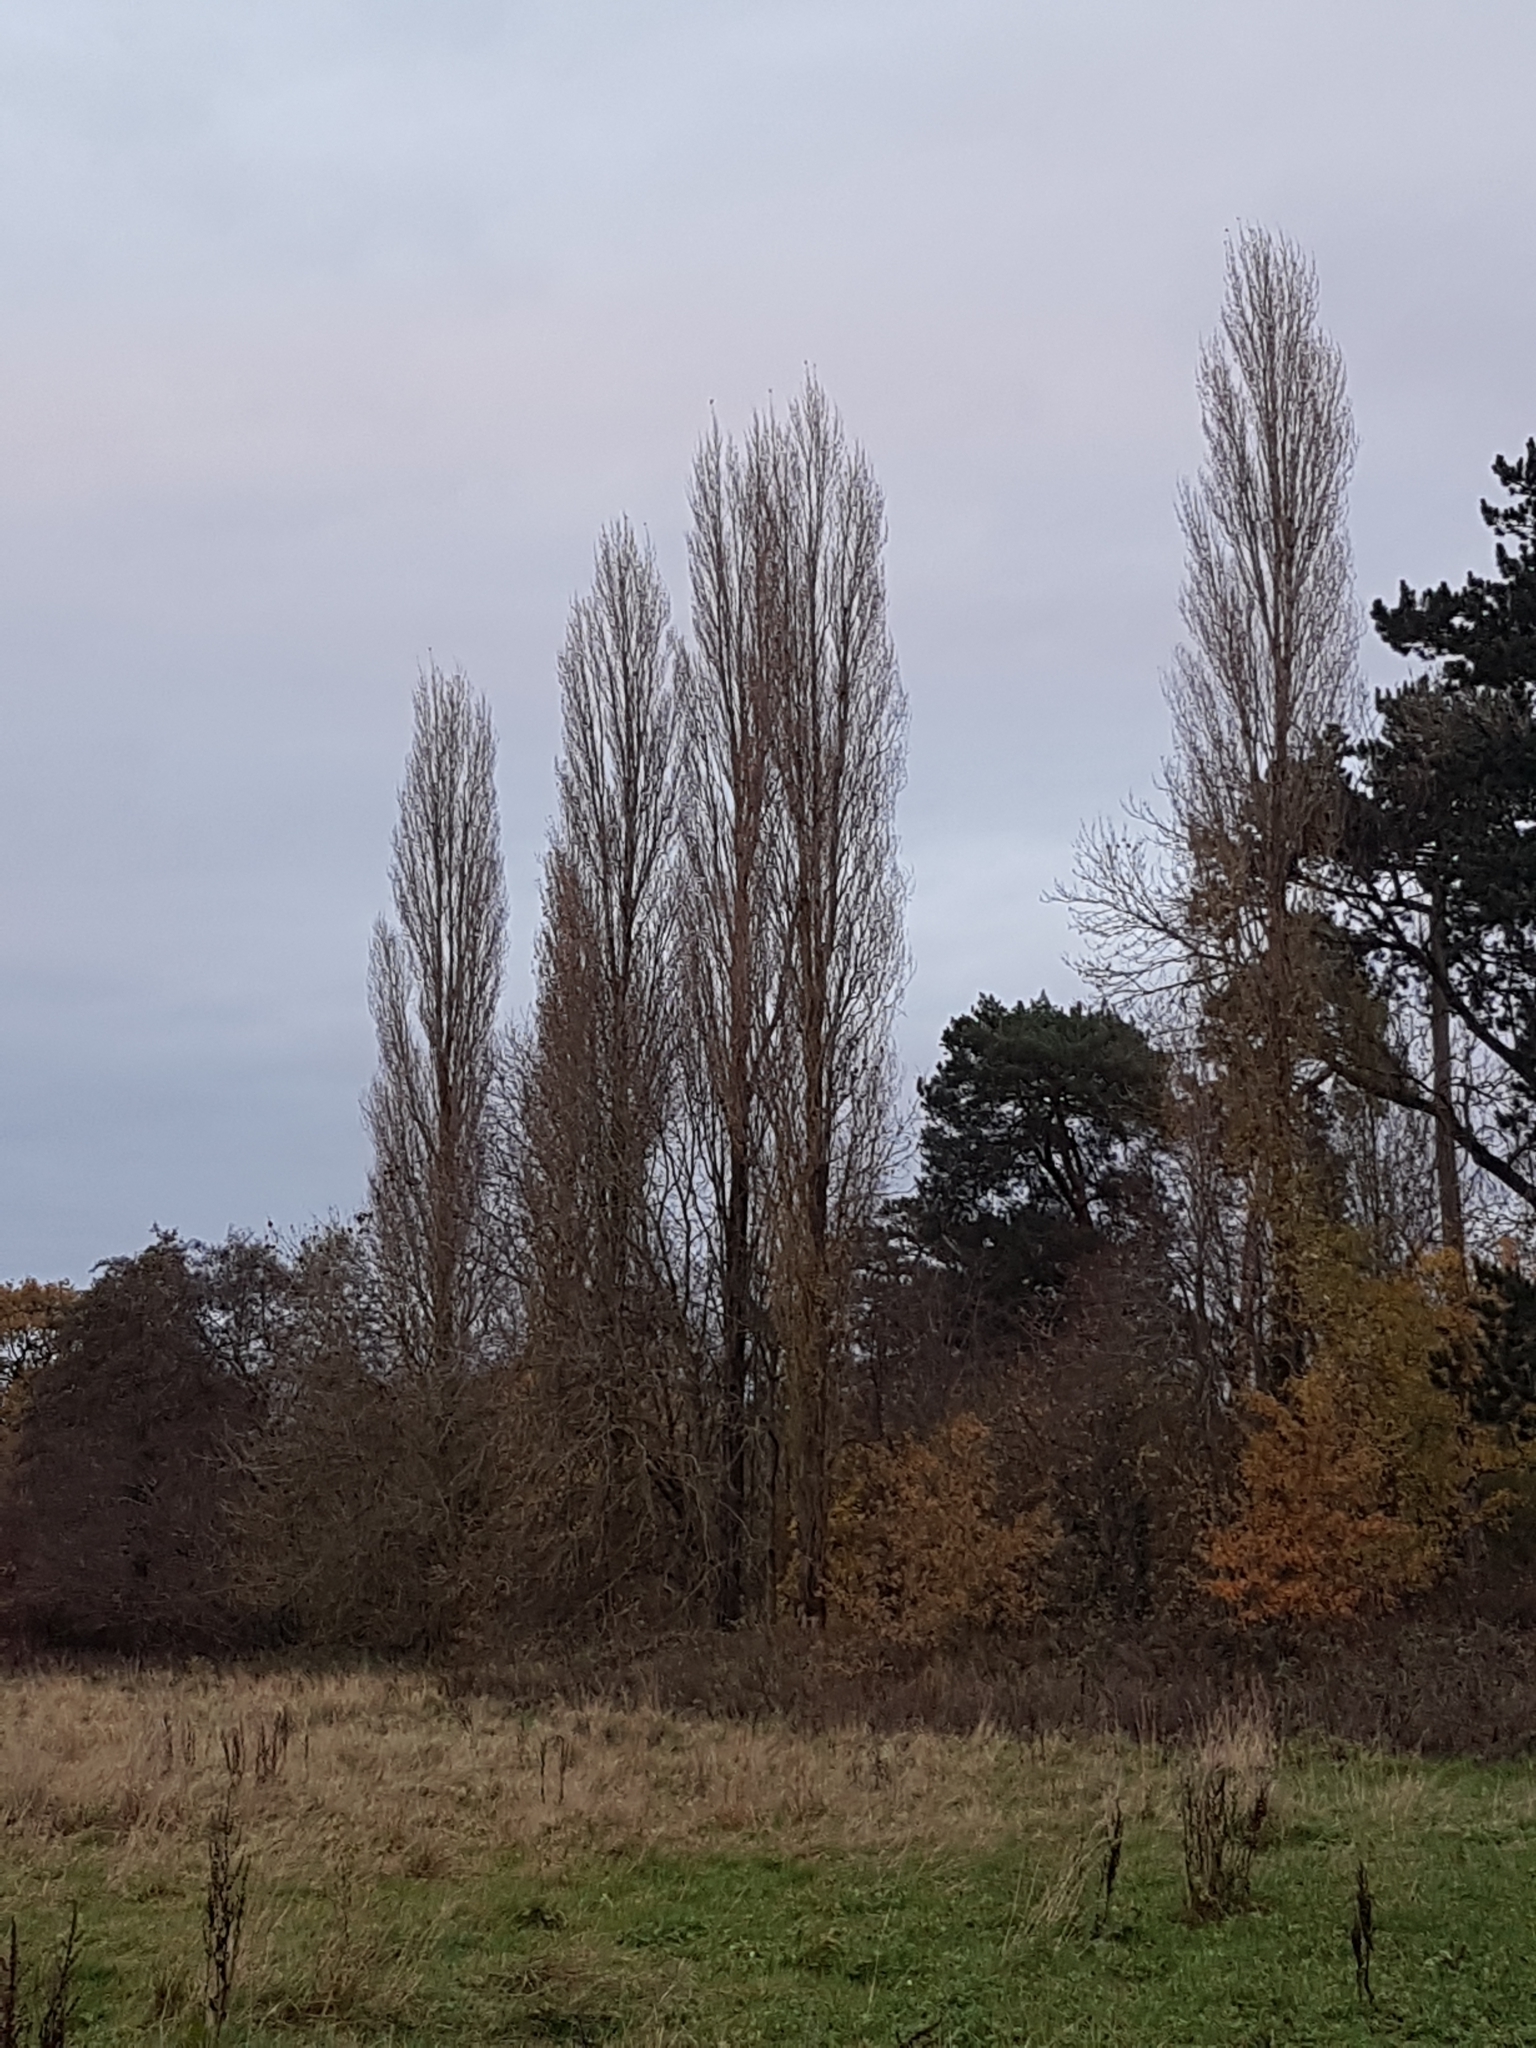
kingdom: Plantae
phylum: Tracheophyta
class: Magnoliopsida
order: Malpighiales
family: Salicaceae
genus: Populus
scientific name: Populus nigra
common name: Black poplar
